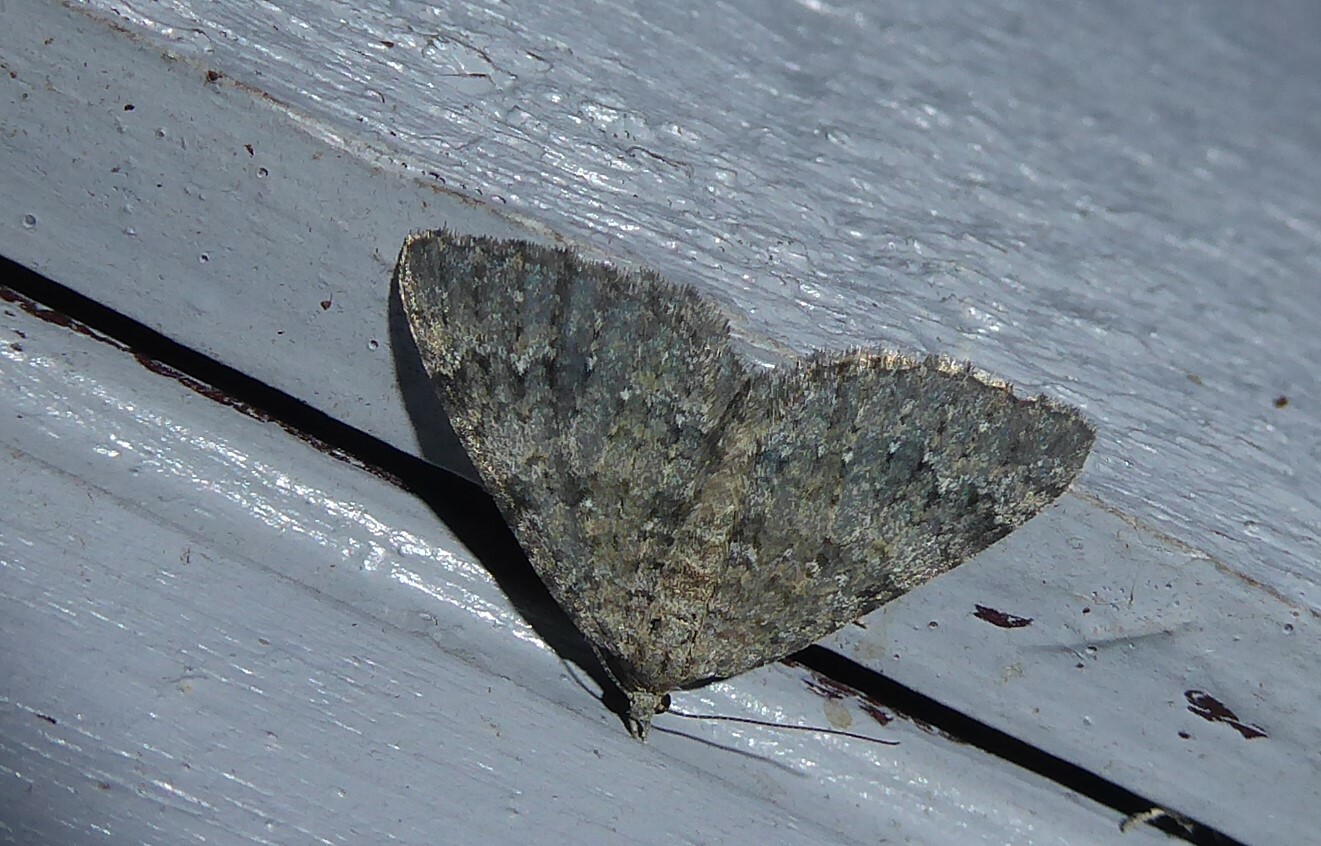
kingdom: Animalia
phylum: Arthropoda
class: Insecta
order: Lepidoptera
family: Geometridae
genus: Helastia
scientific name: Helastia corcularia
